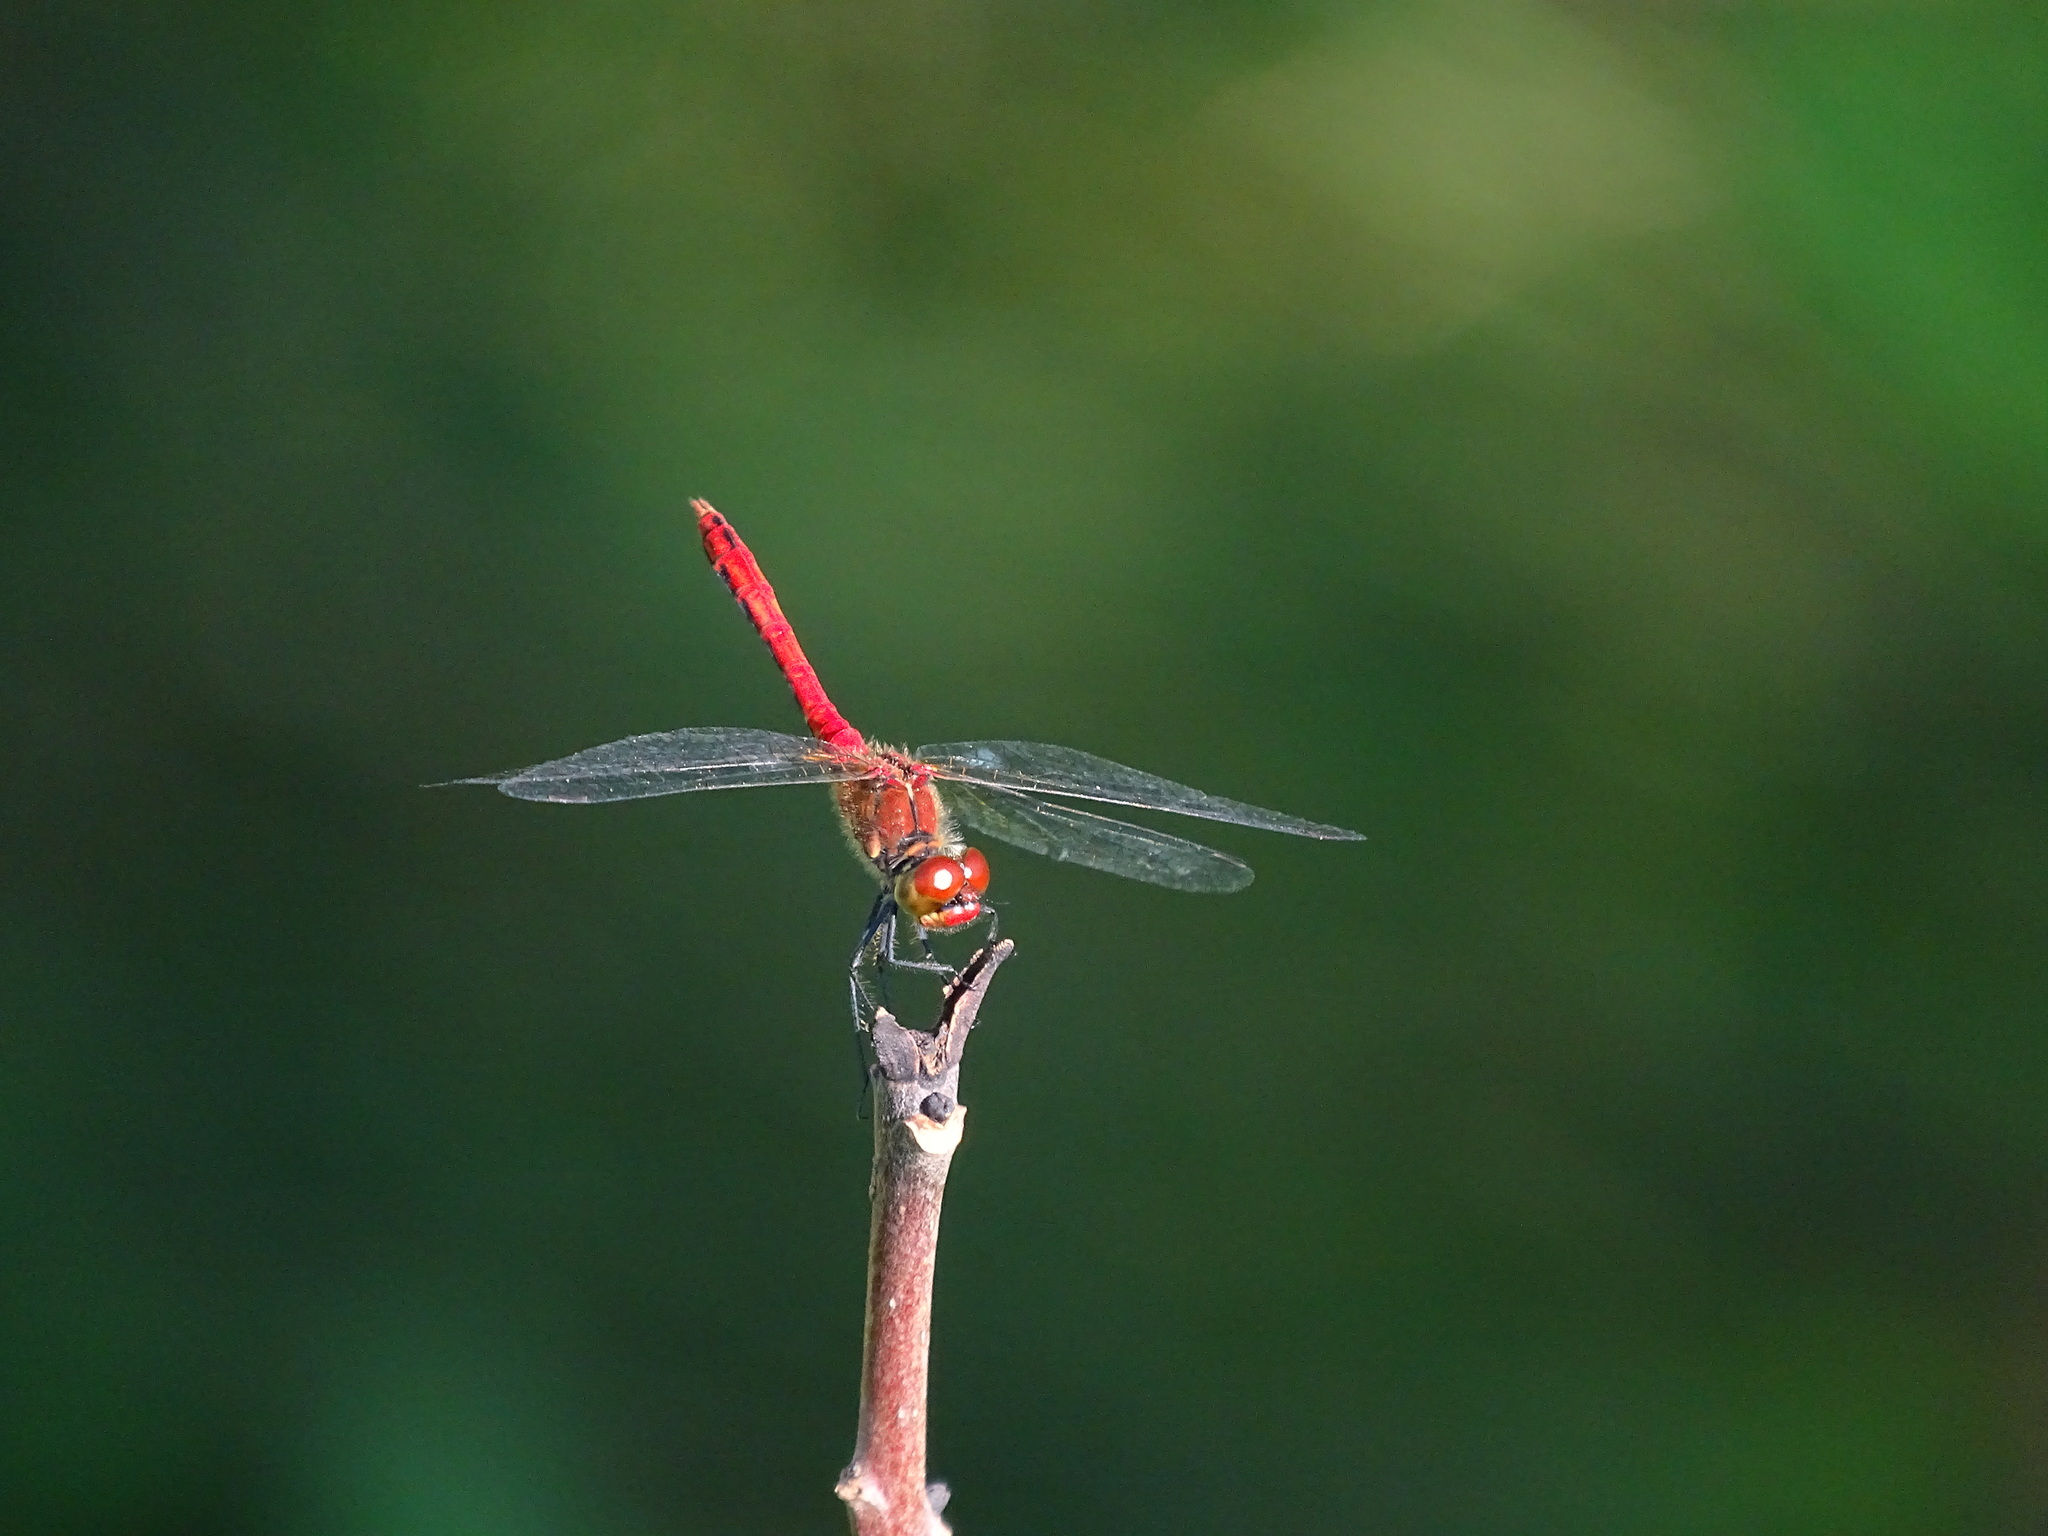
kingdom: Animalia
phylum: Arthropoda
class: Insecta
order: Odonata
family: Libellulidae
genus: Sympetrum
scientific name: Sympetrum sanguineum
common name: Ruddy darter
